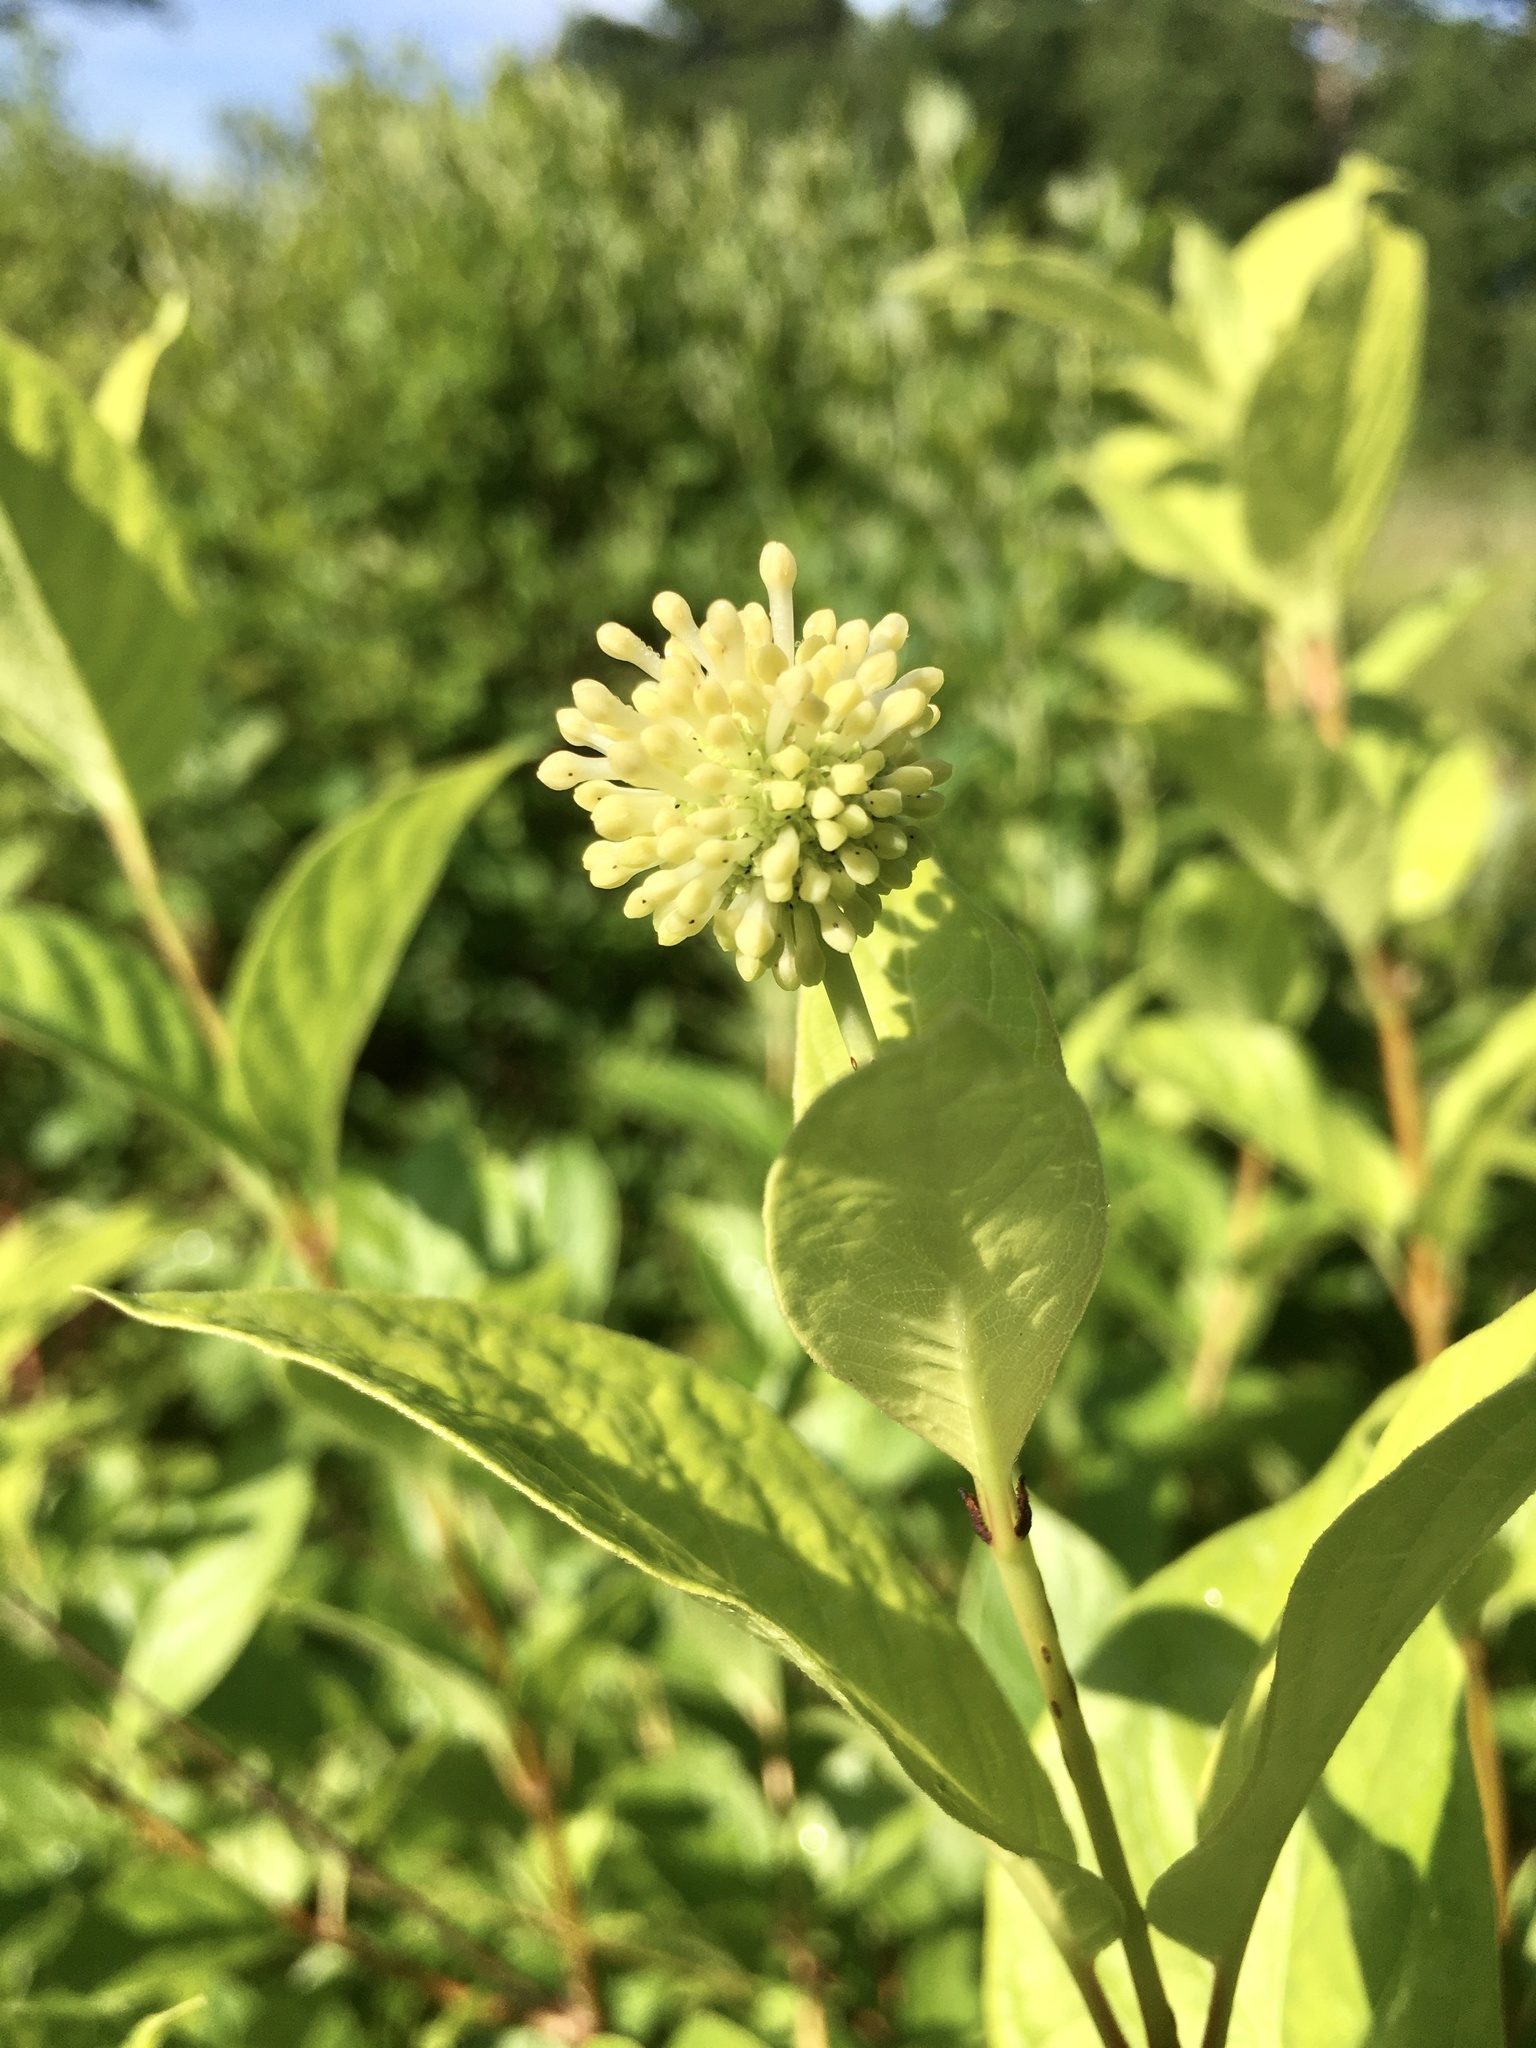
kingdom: Plantae
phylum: Tracheophyta
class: Magnoliopsida
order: Gentianales
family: Rubiaceae
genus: Cephalanthus
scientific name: Cephalanthus occidentalis
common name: Button-willow
